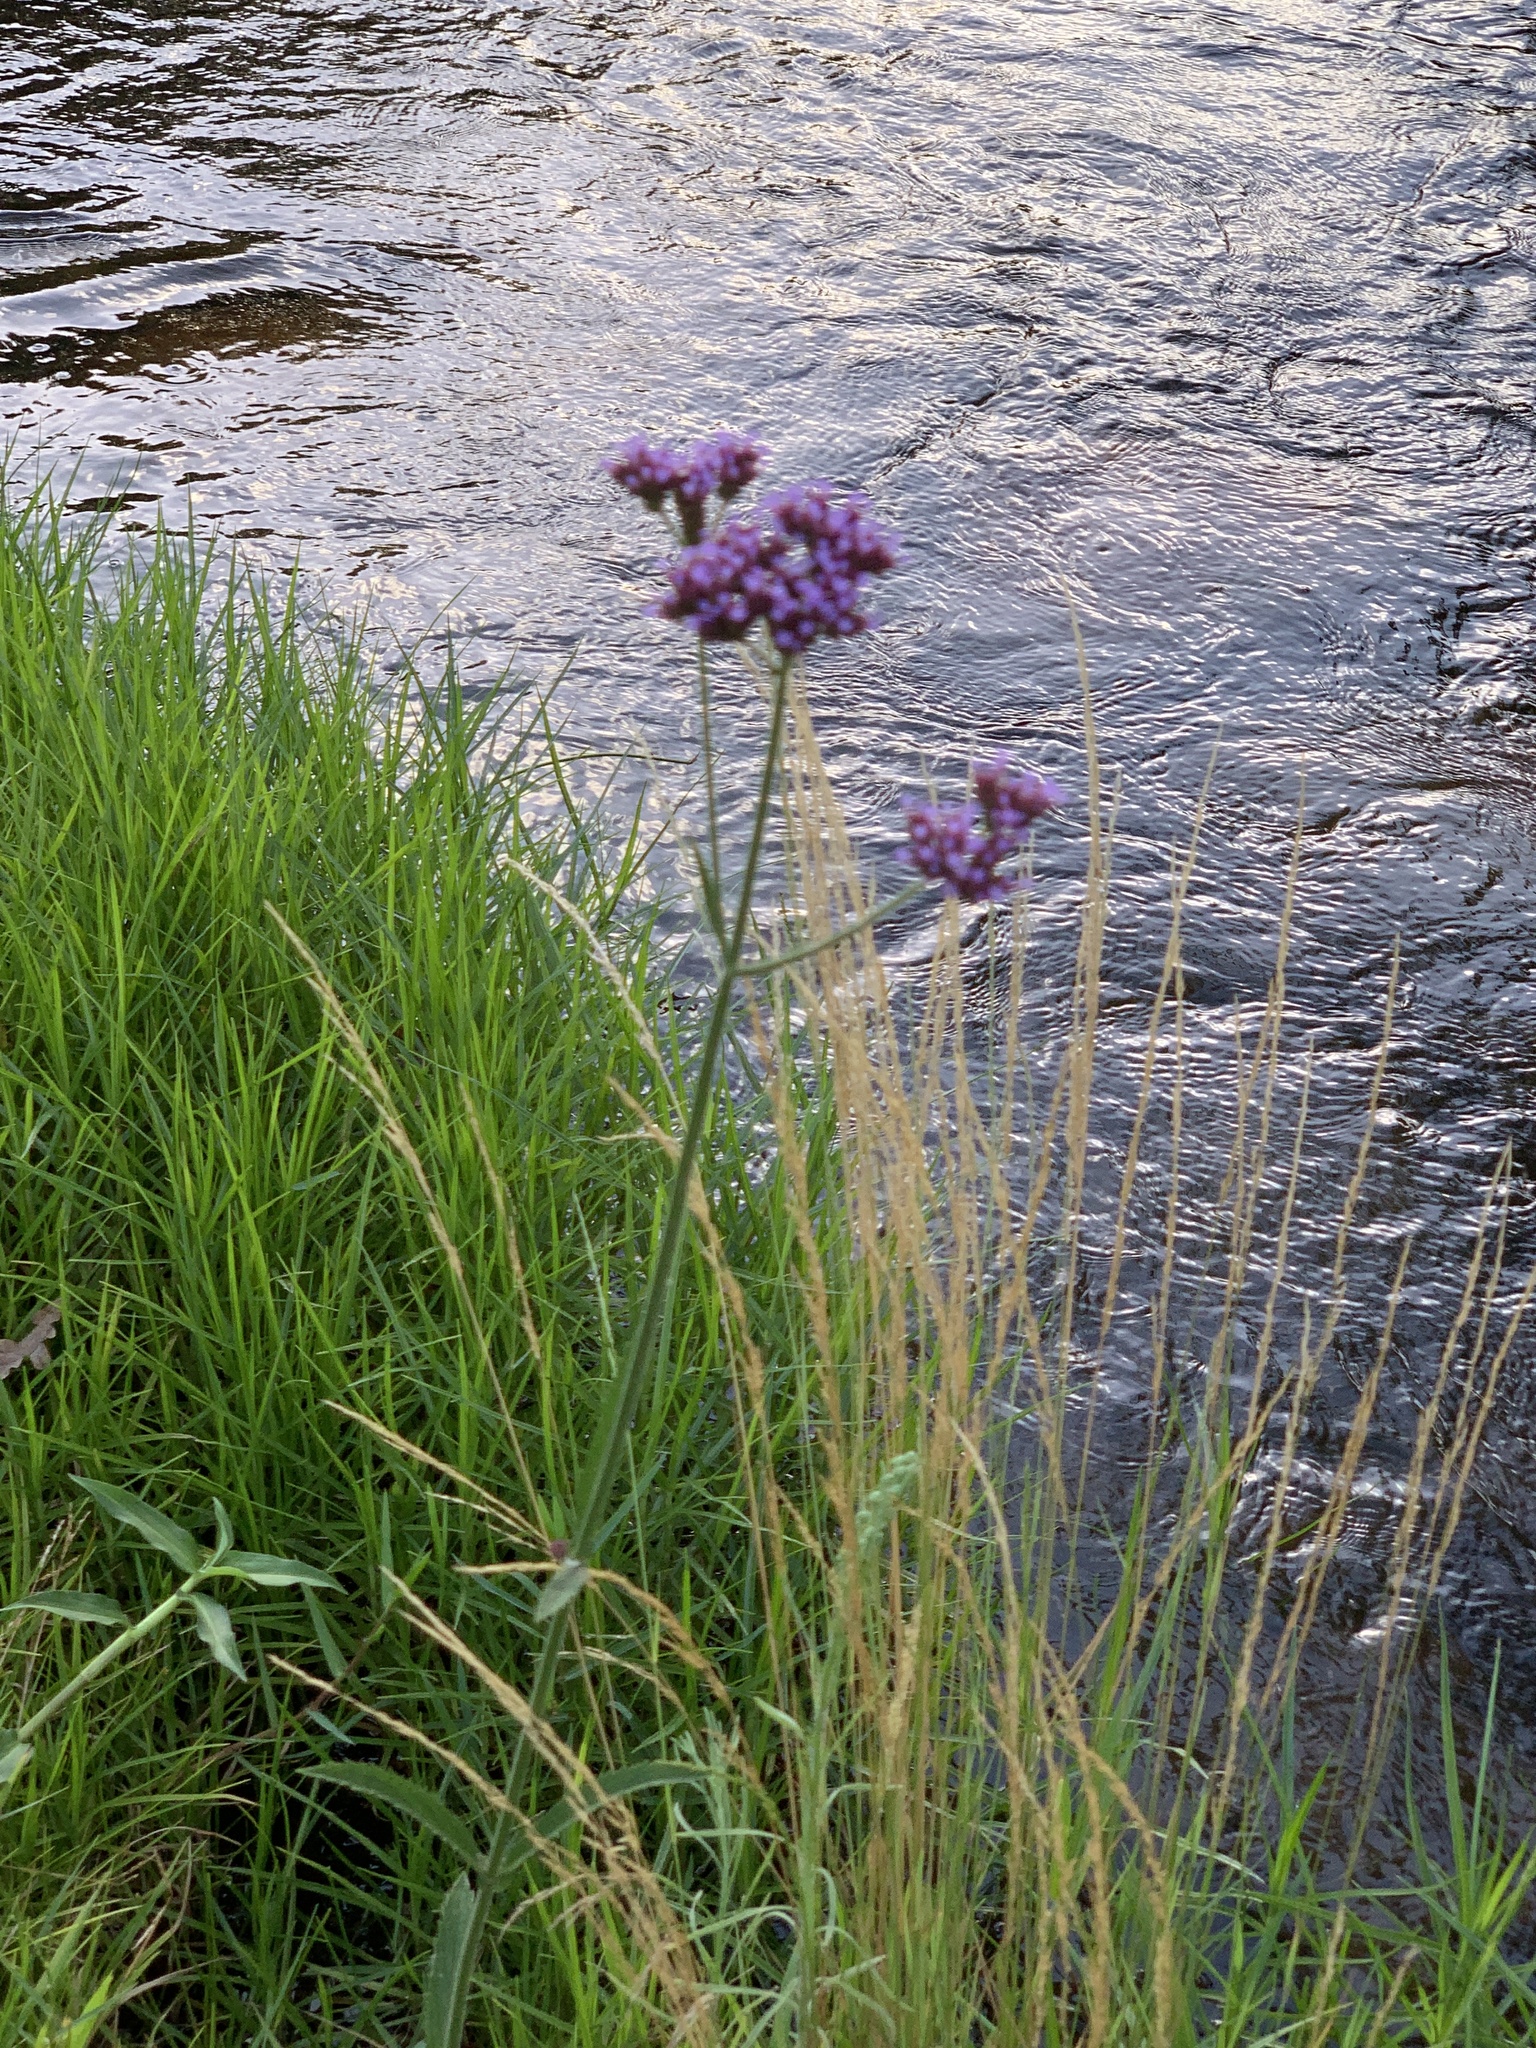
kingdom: Plantae
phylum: Tracheophyta
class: Magnoliopsida
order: Lamiales
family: Verbenaceae
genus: Verbena
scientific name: Verbena bonariensis
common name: Purpletop vervain
